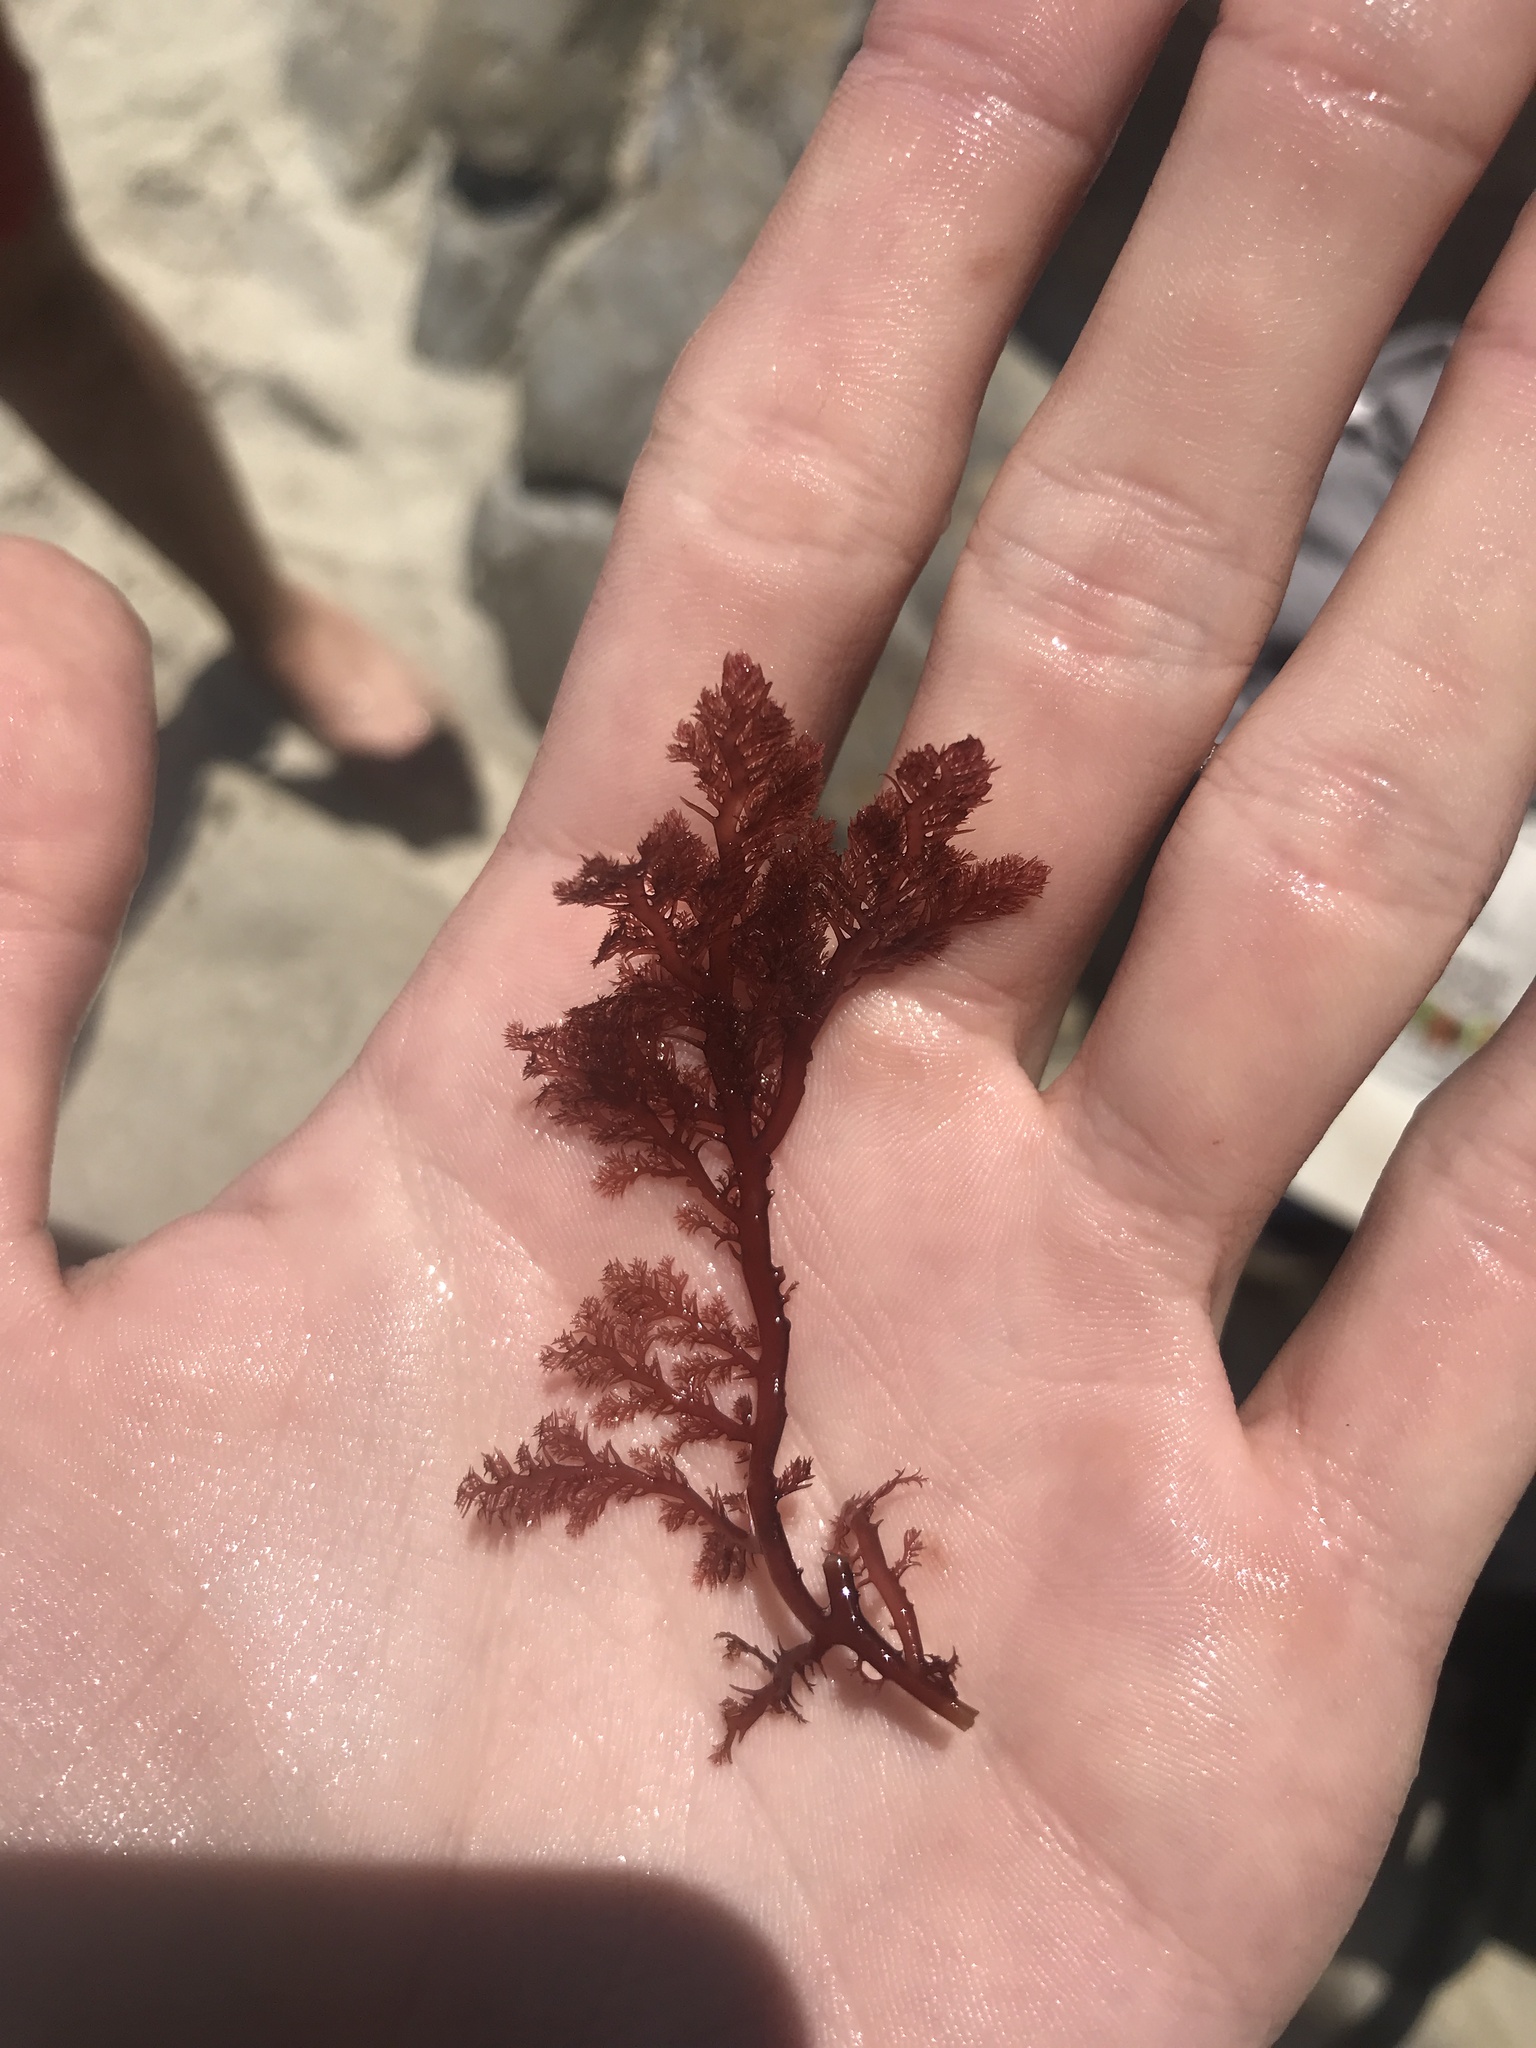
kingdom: Plantae
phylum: Rhodophyta
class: Florideophyceae
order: Plocamiales
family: Plocamiaceae
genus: Plocamium
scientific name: Plocamium cartilagineum
